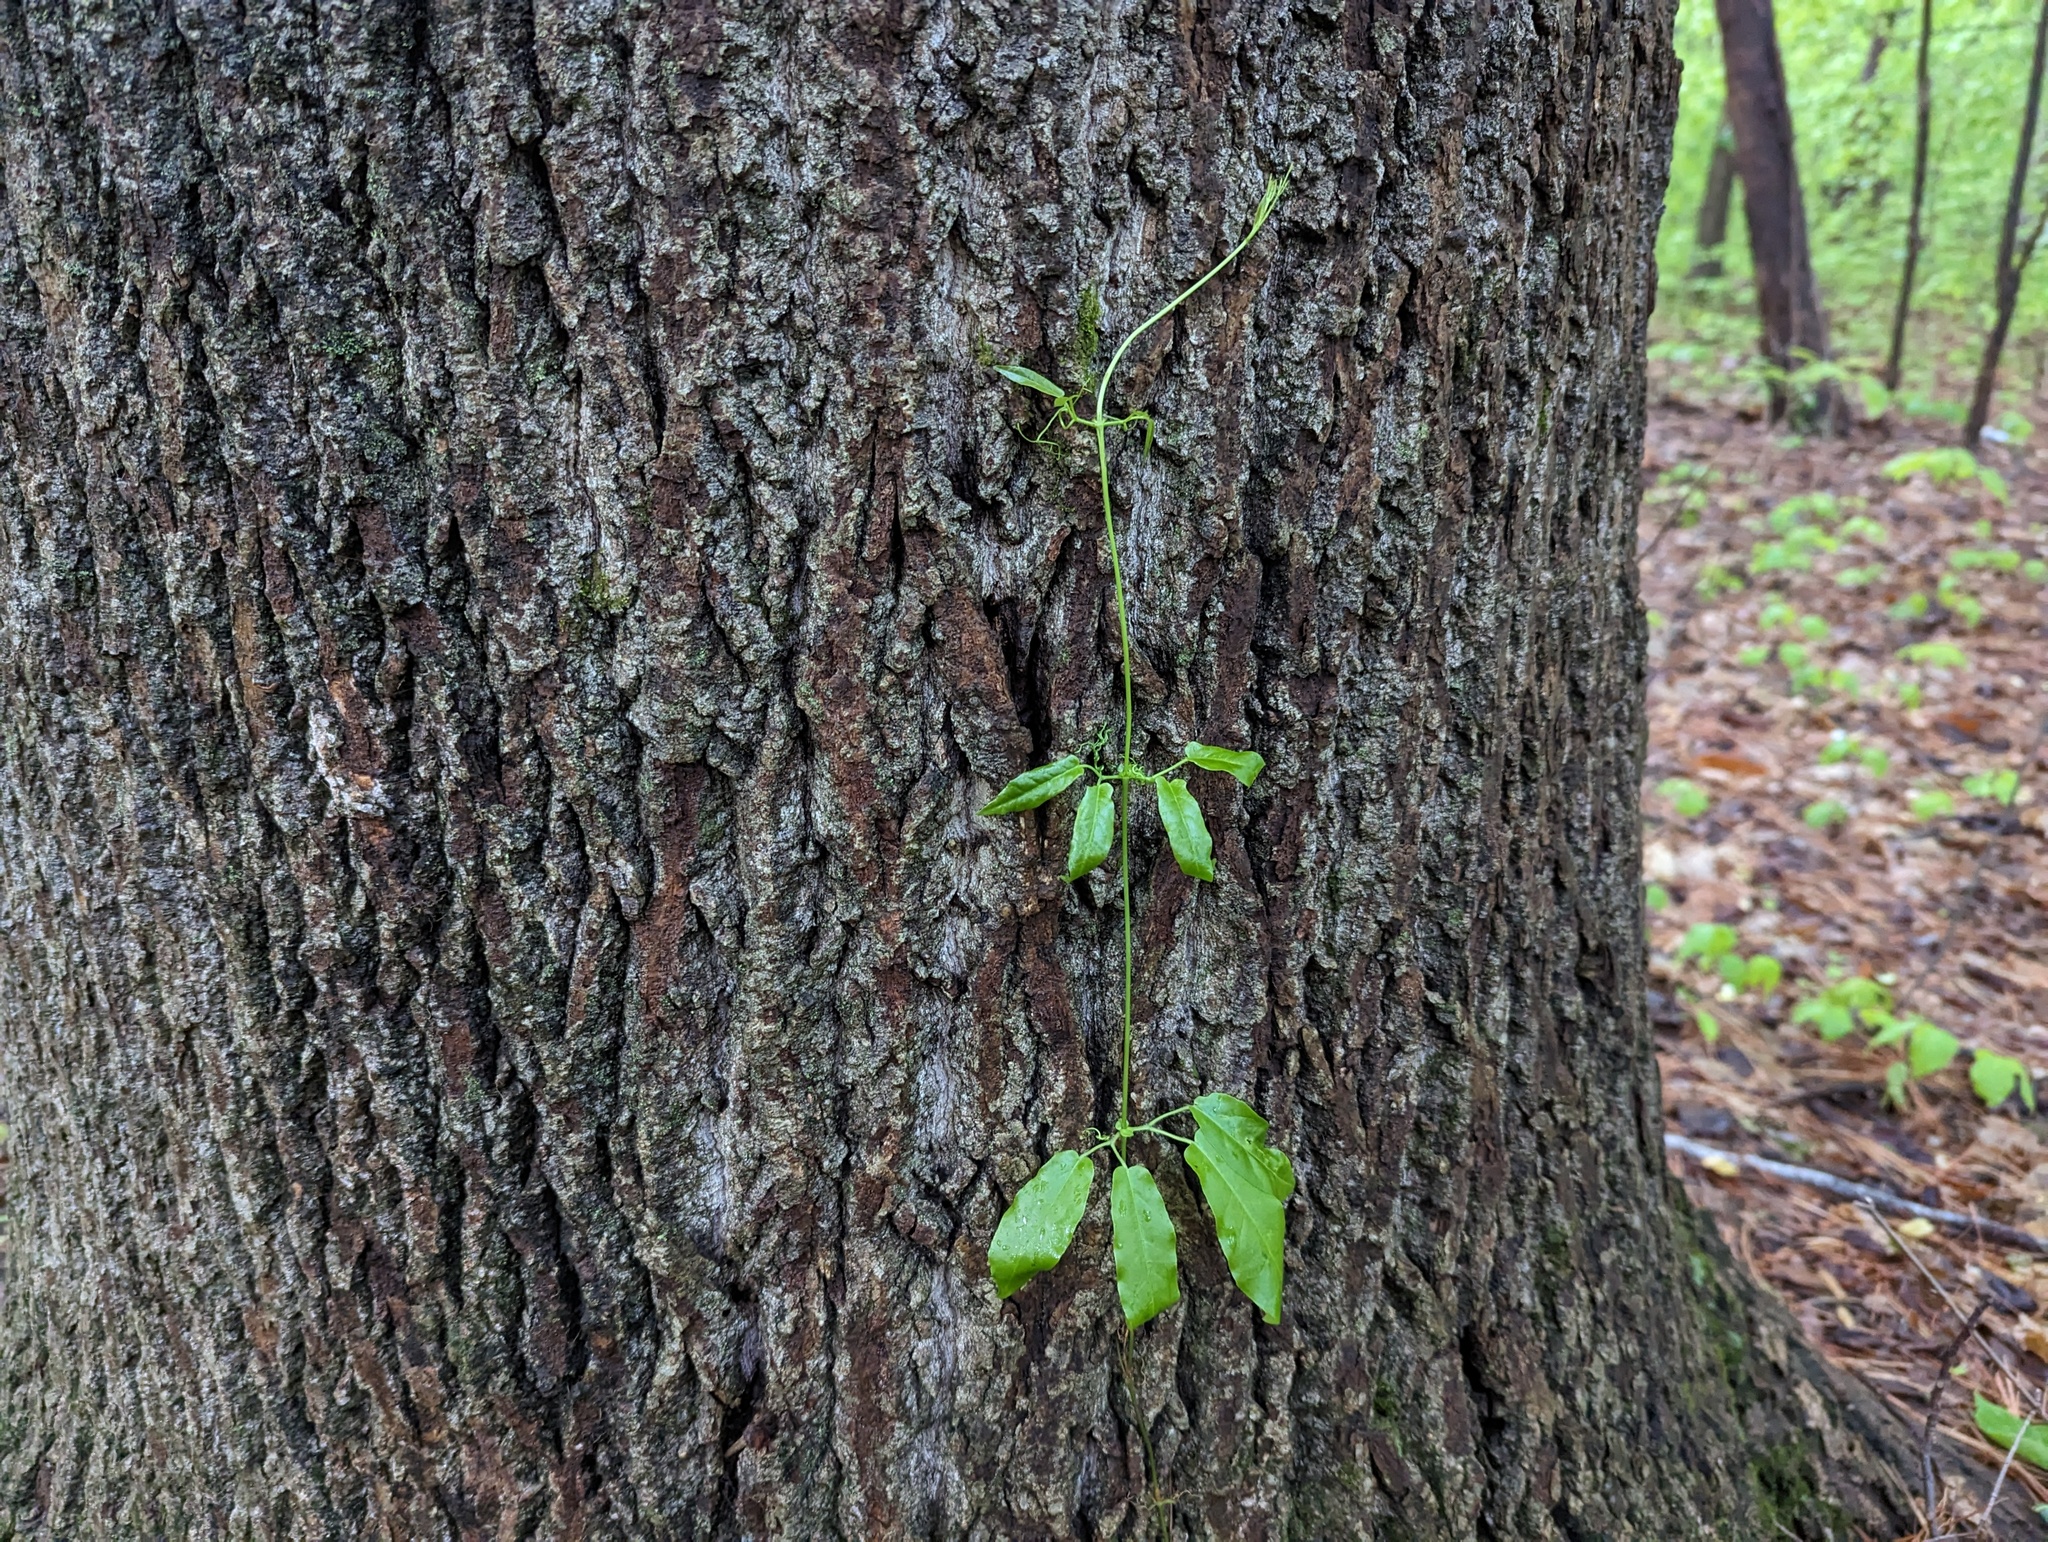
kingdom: Plantae
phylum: Tracheophyta
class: Magnoliopsida
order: Lamiales
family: Bignoniaceae
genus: Bignonia
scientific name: Bignonia capreolata
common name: Crossvine
